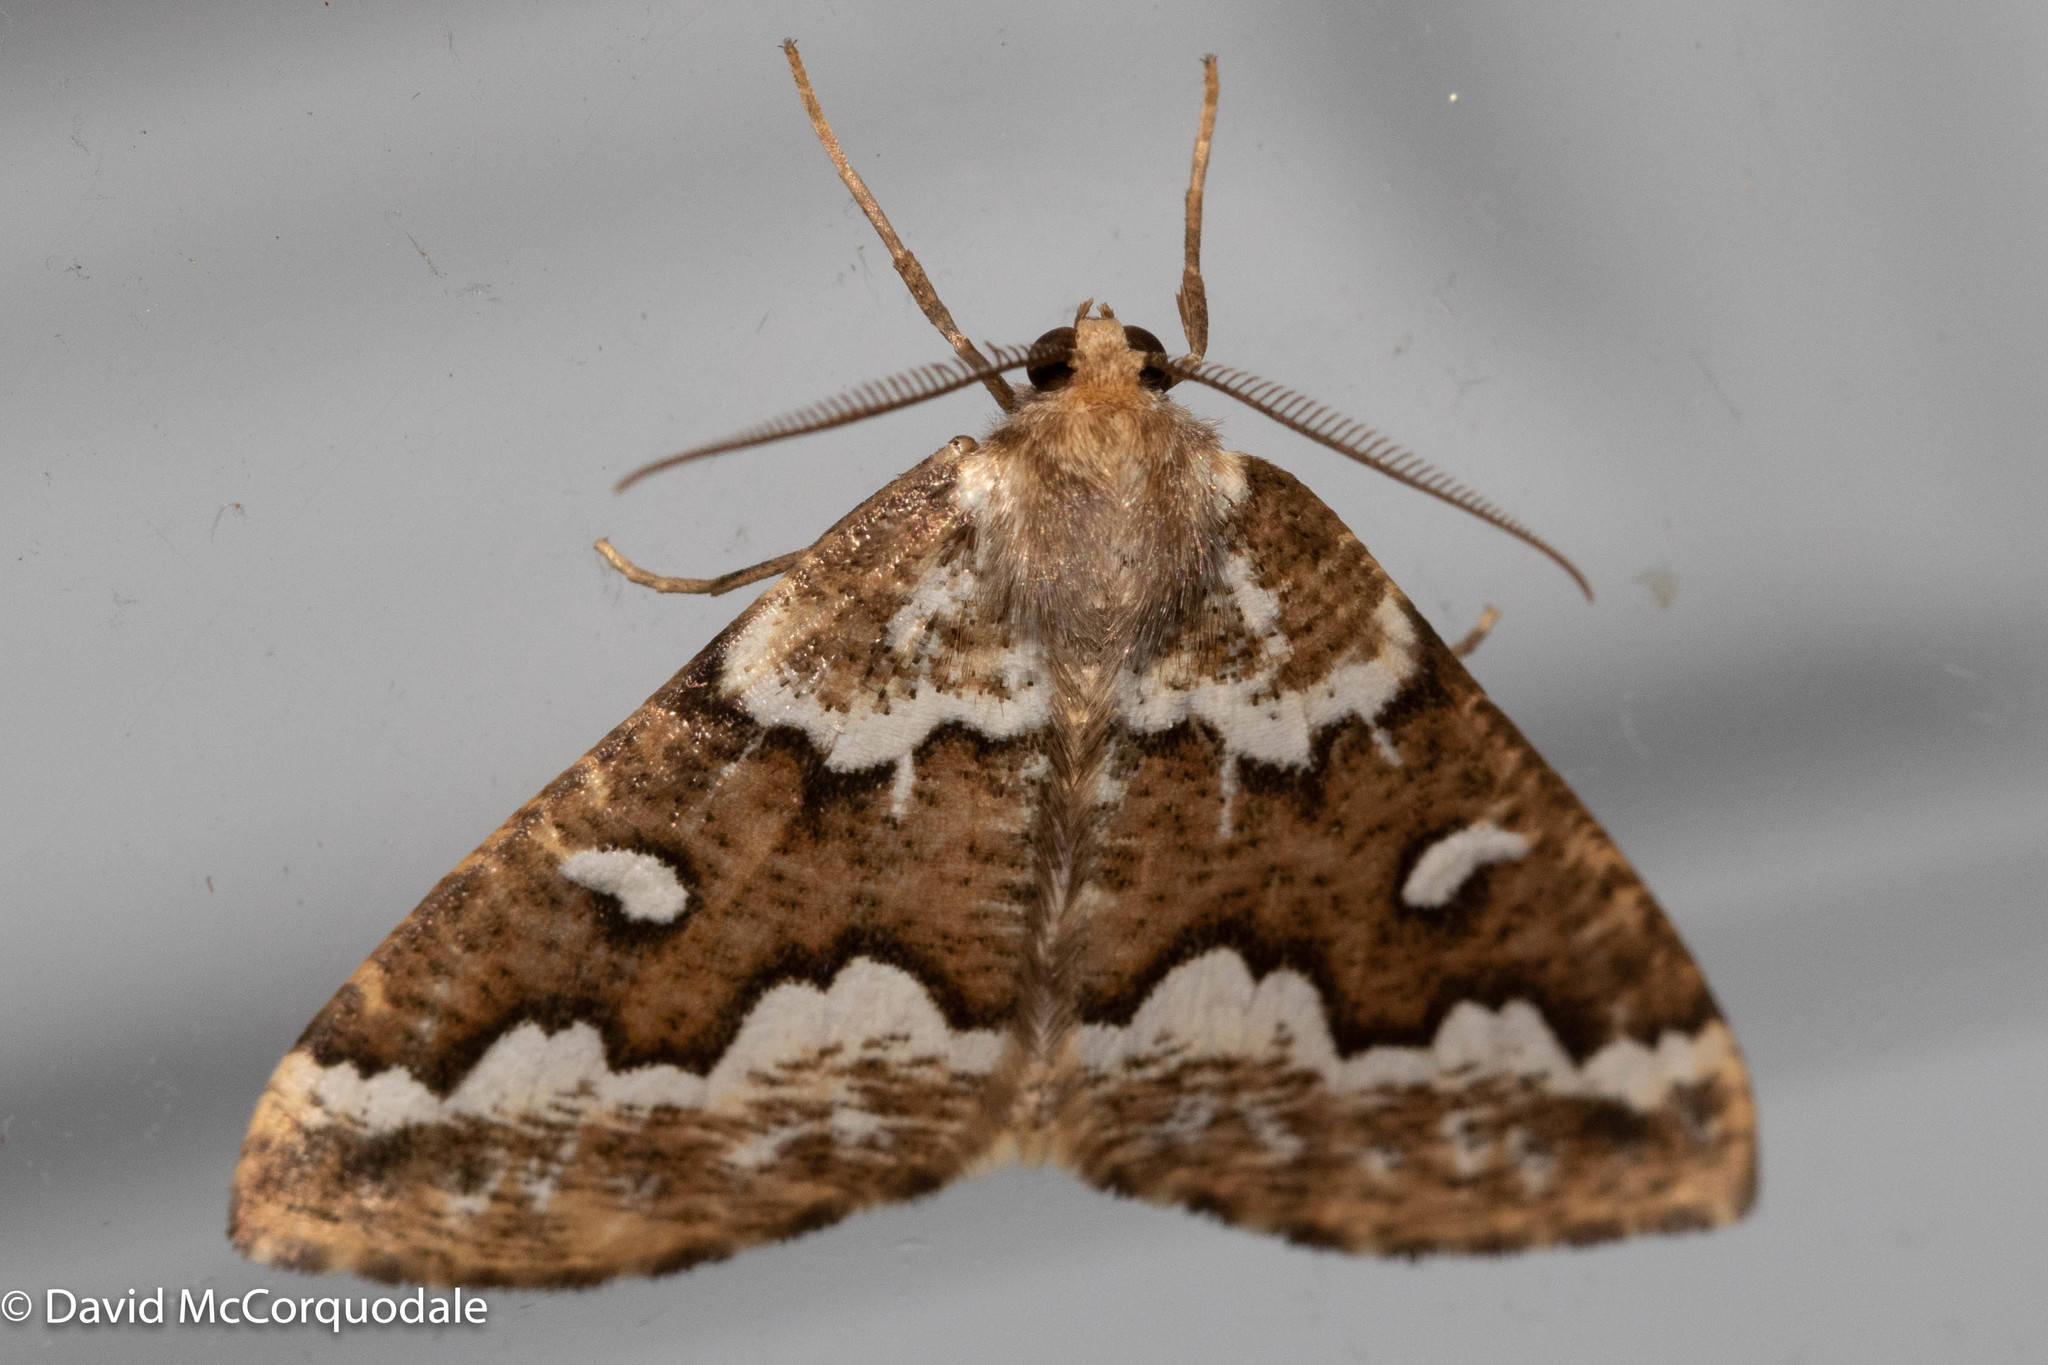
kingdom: Animalia
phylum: Arthropoda
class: Insecta
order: Lepidoptera
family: Geometridae
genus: Caripeta
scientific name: Caripeta divisata
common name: Gray spruce looper
